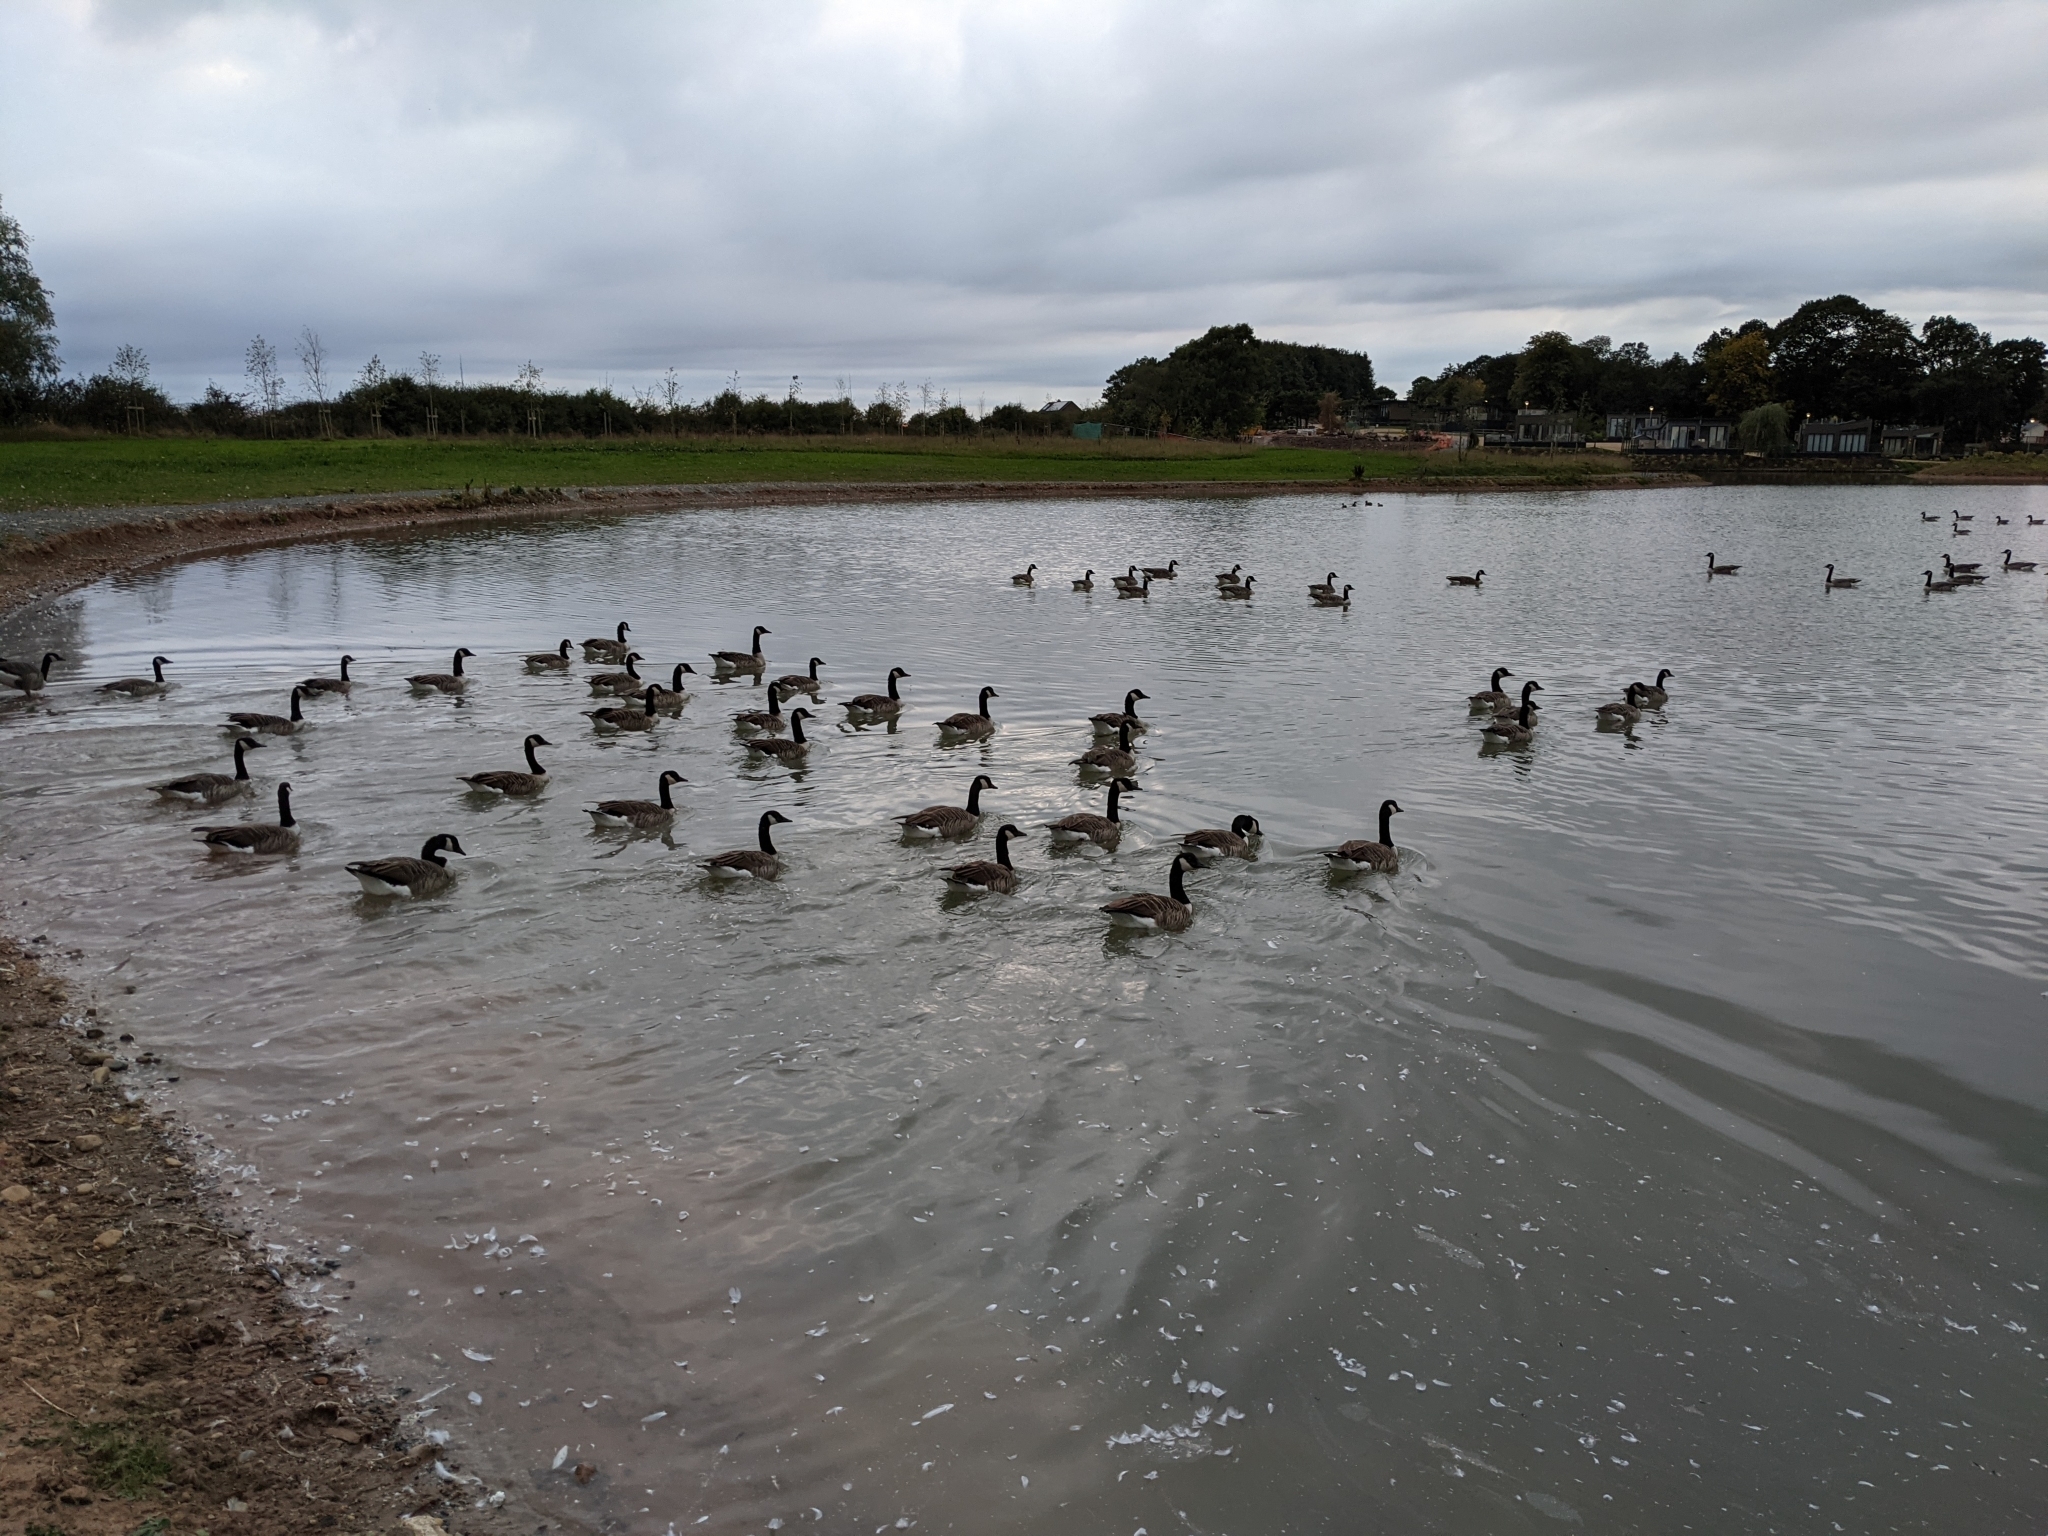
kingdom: Animalia
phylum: Chordata
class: Aves
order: Anseriformes
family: Anatidae
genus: Branta
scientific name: Branta canadensis
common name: Canada goose
